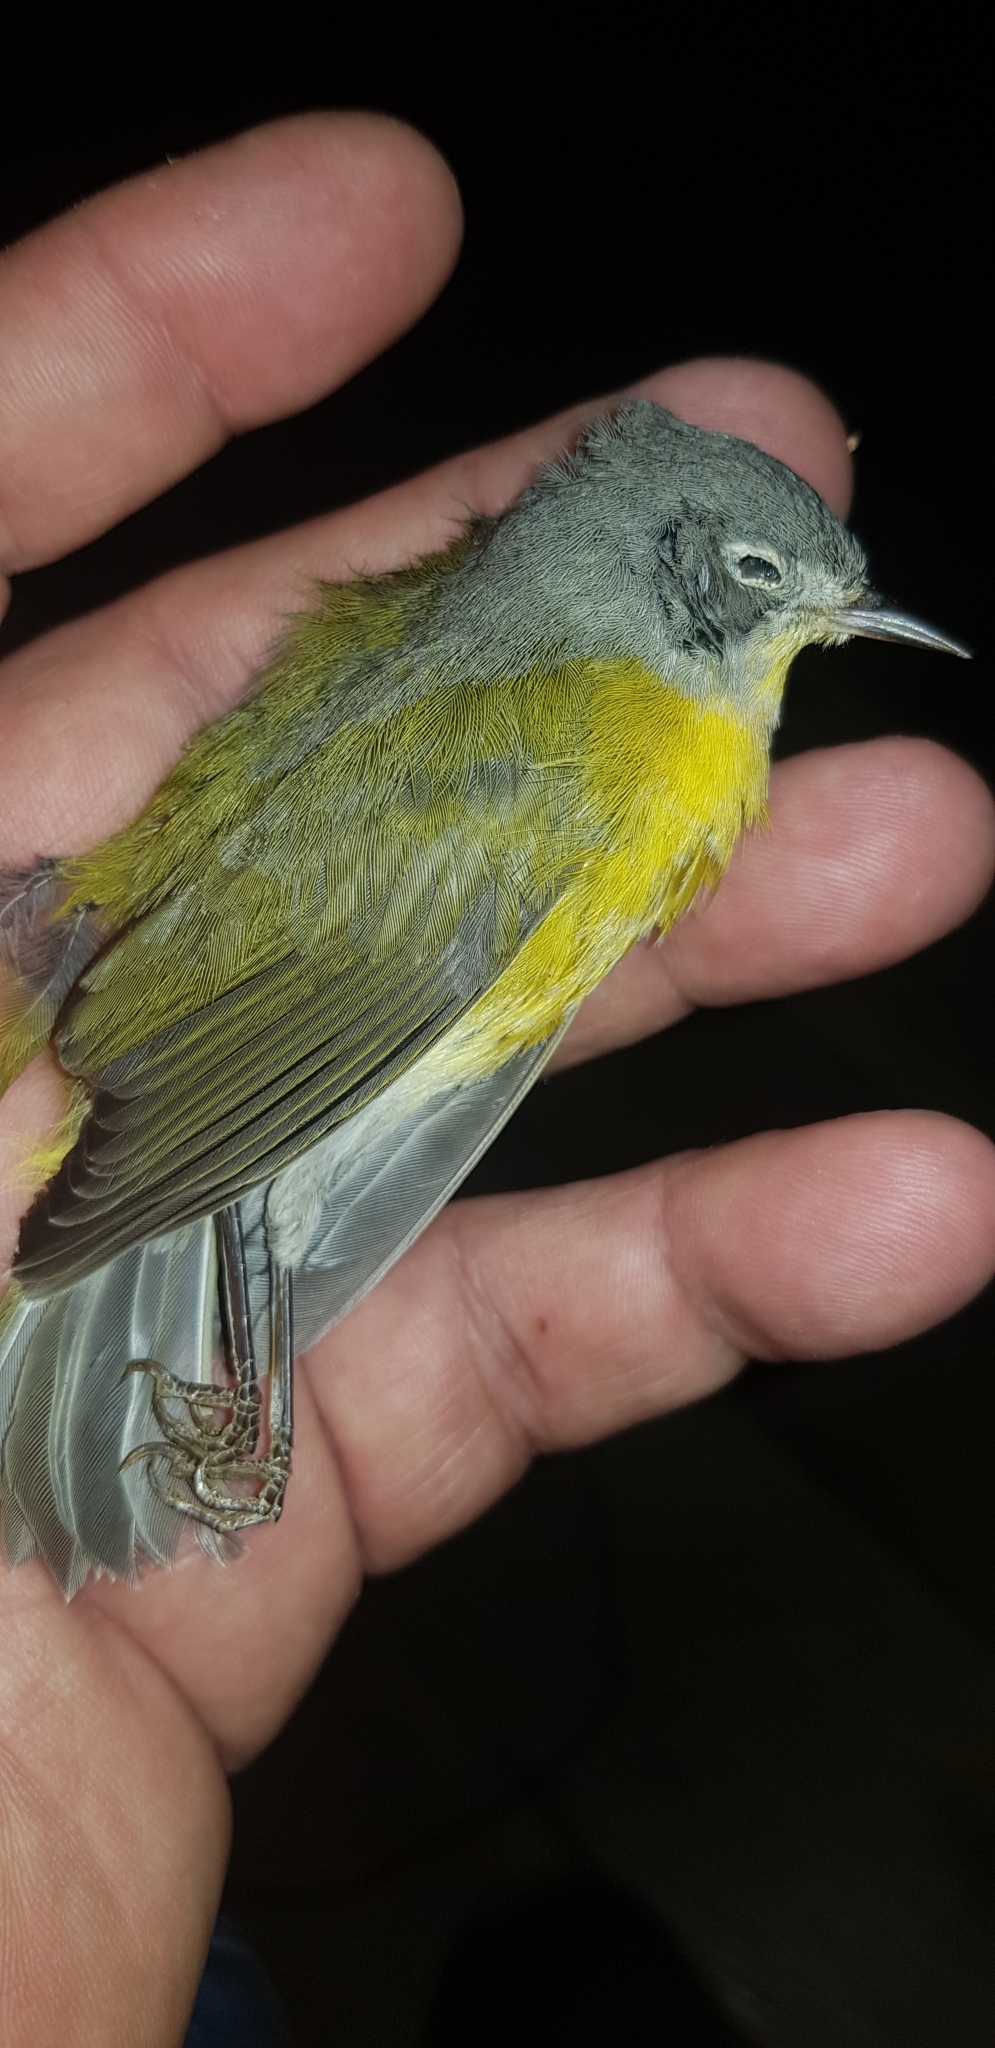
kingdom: Animalia
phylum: Chordata
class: Aves
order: Passeriformes
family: Parulidae
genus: Leiothlypis
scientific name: Leiothlypis ruficapilla
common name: Nashville warbler
